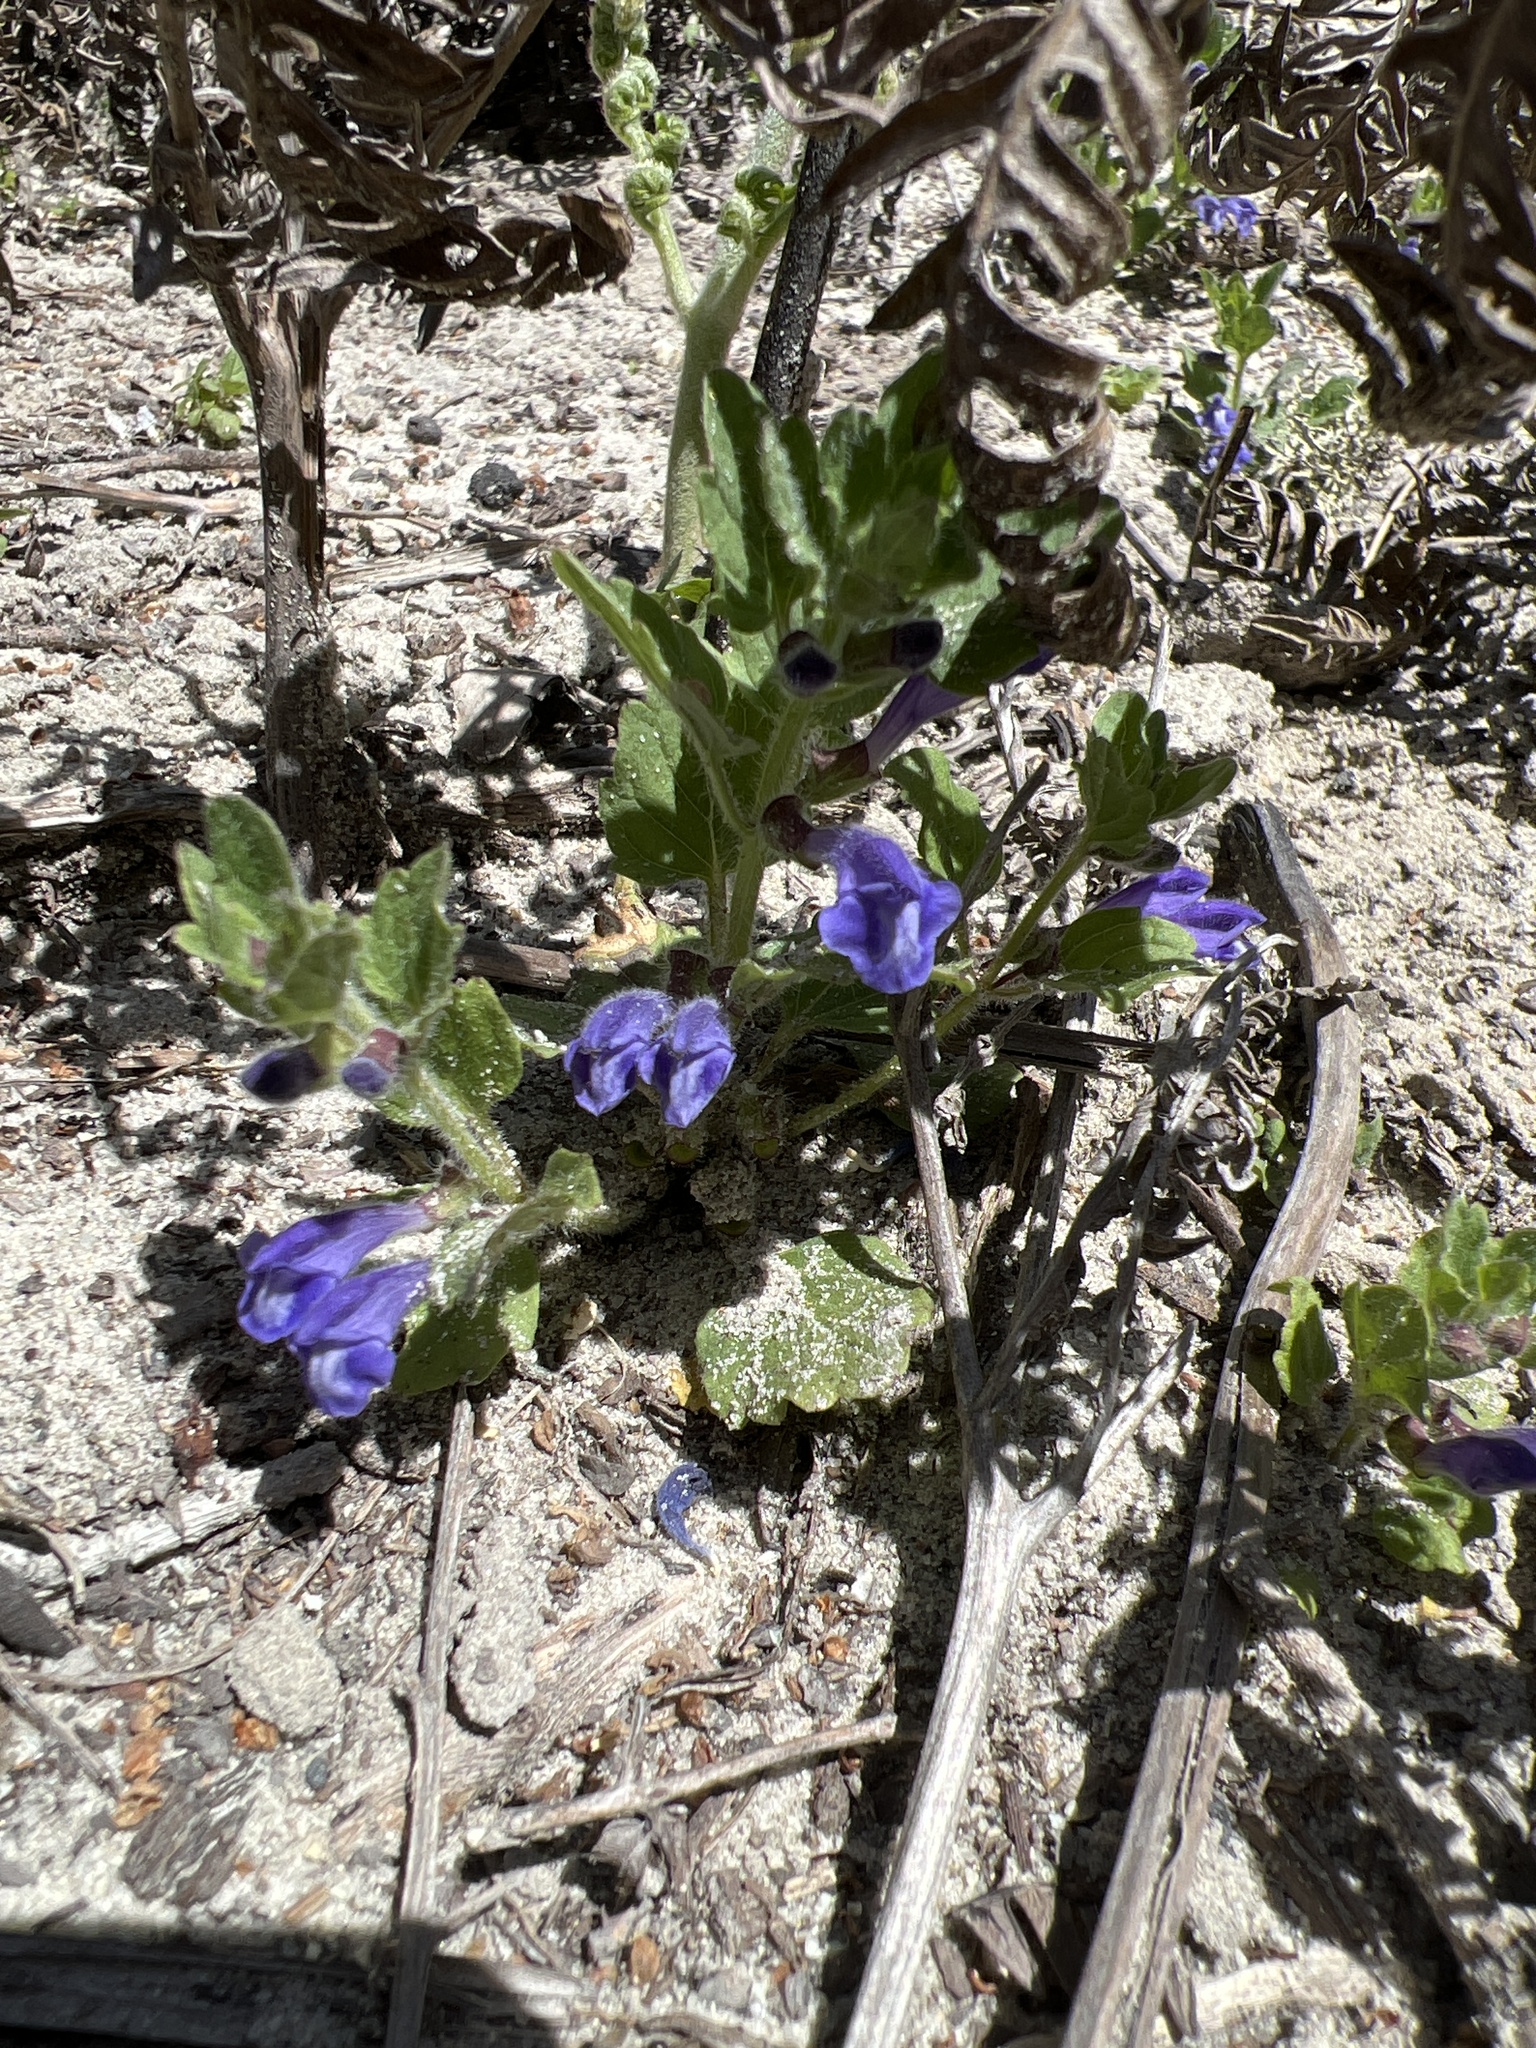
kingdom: Plantae
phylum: Tracheophyta
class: Magnoliopsida
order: Lamiales
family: Lamiaceae
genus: Scutellaria
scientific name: Scutellaria tuberosa
